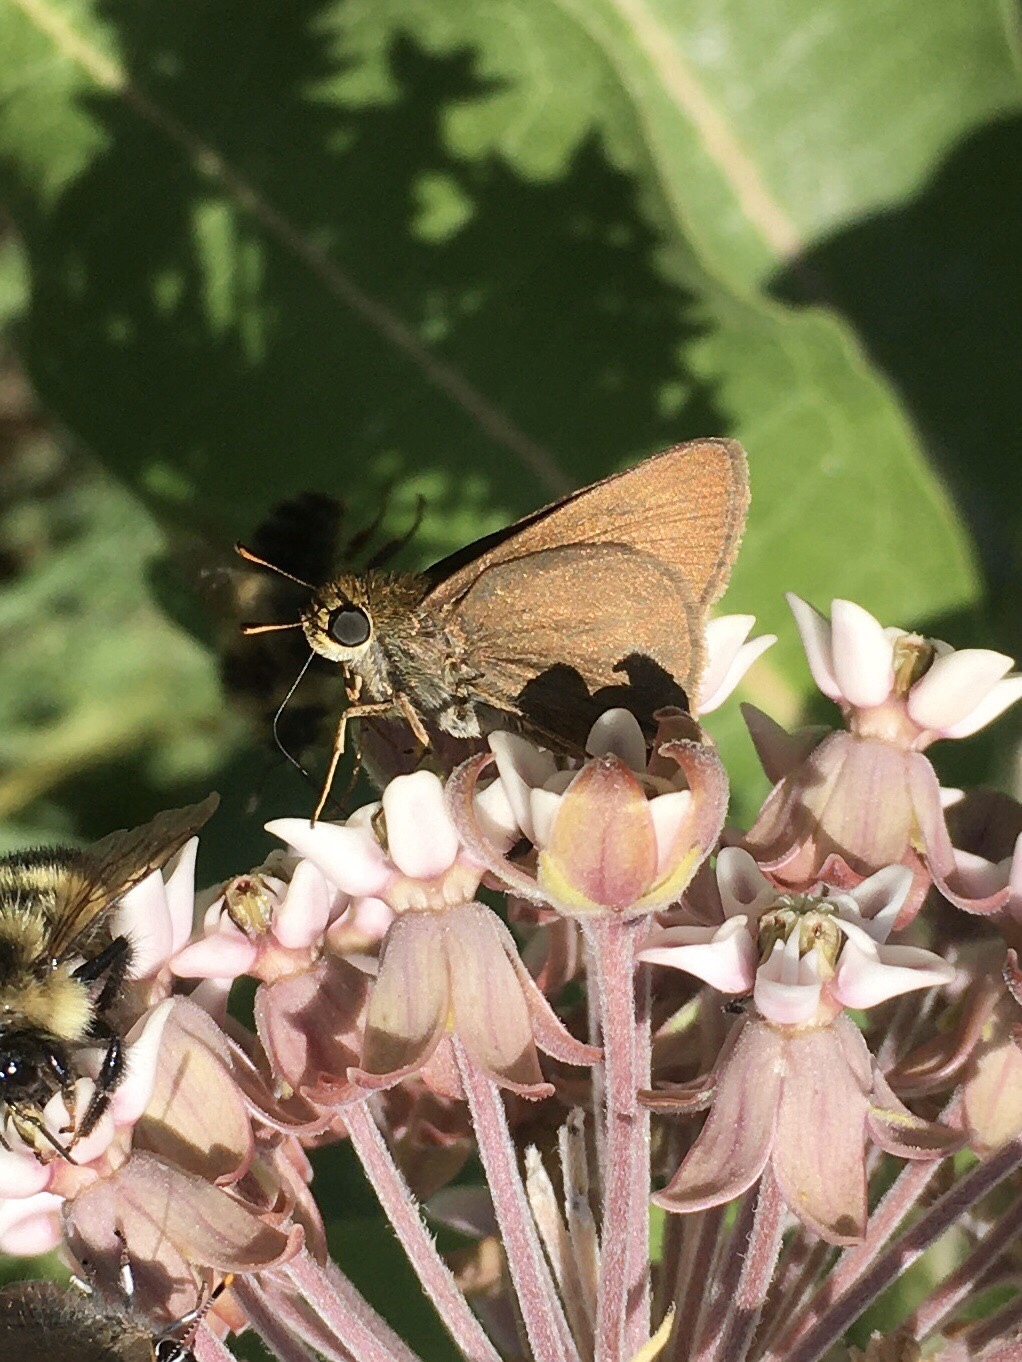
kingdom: Animalia
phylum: Arthropoda
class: Insecta
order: Lepidoptera
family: Hesperiidae
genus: Euphyes
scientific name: Euphyes vestris
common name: Dun skipper
